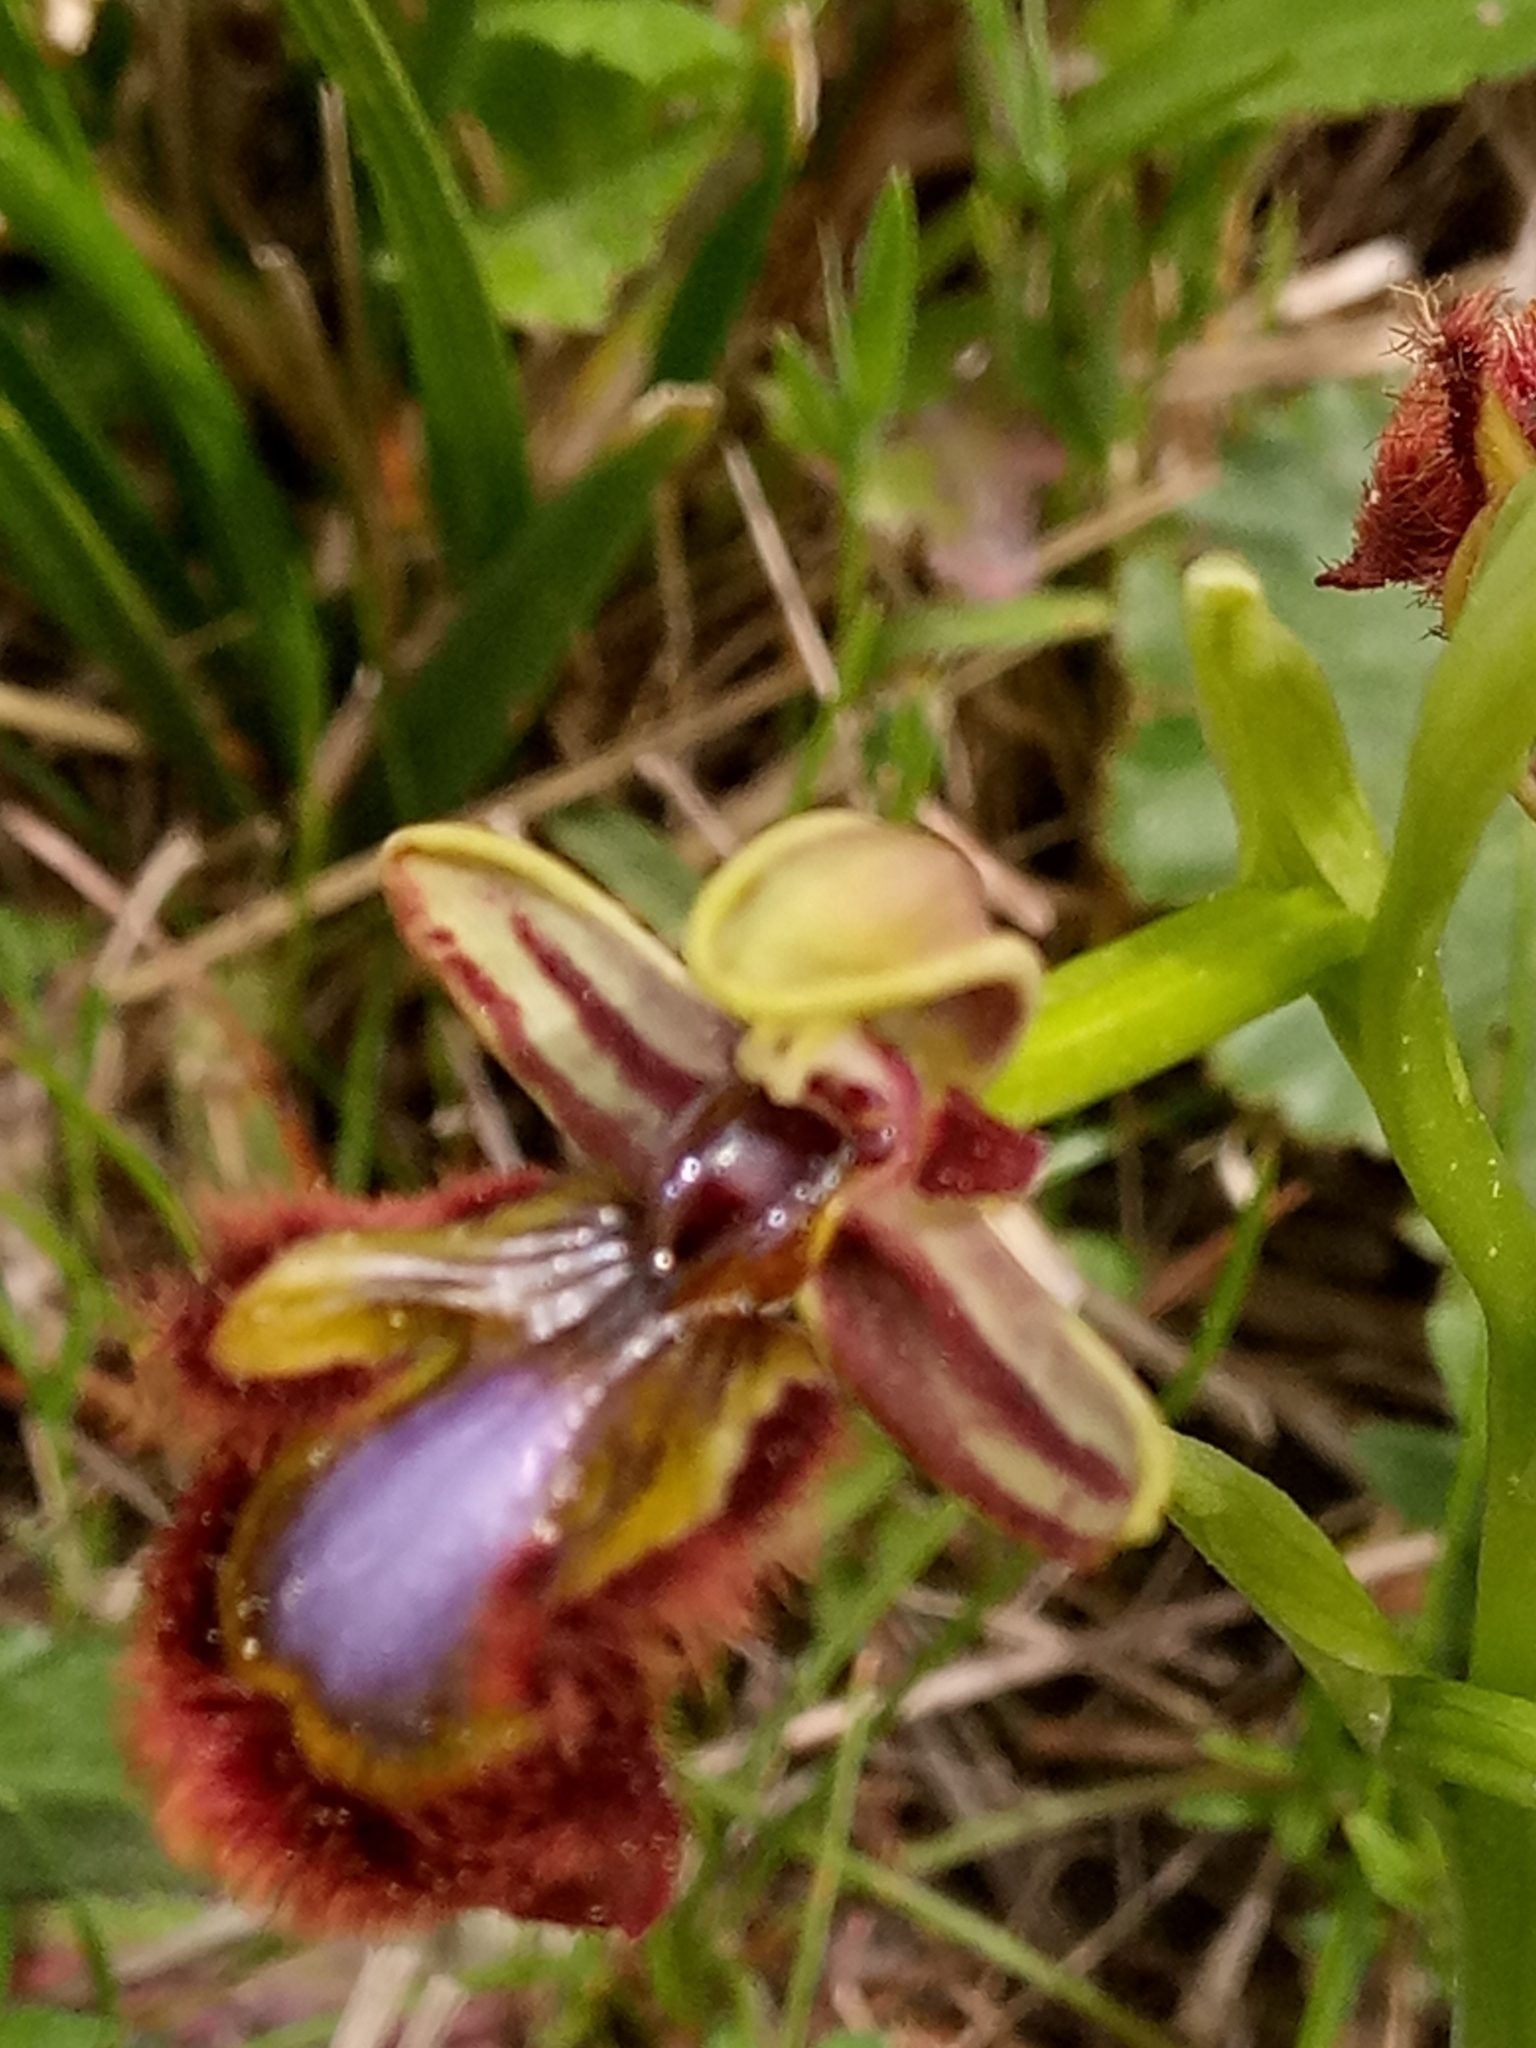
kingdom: Plantae
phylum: Tracheophyta
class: Liliopsida
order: Asparagales
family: Orchidaceae
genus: Ophrys
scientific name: Ophrys speculum
